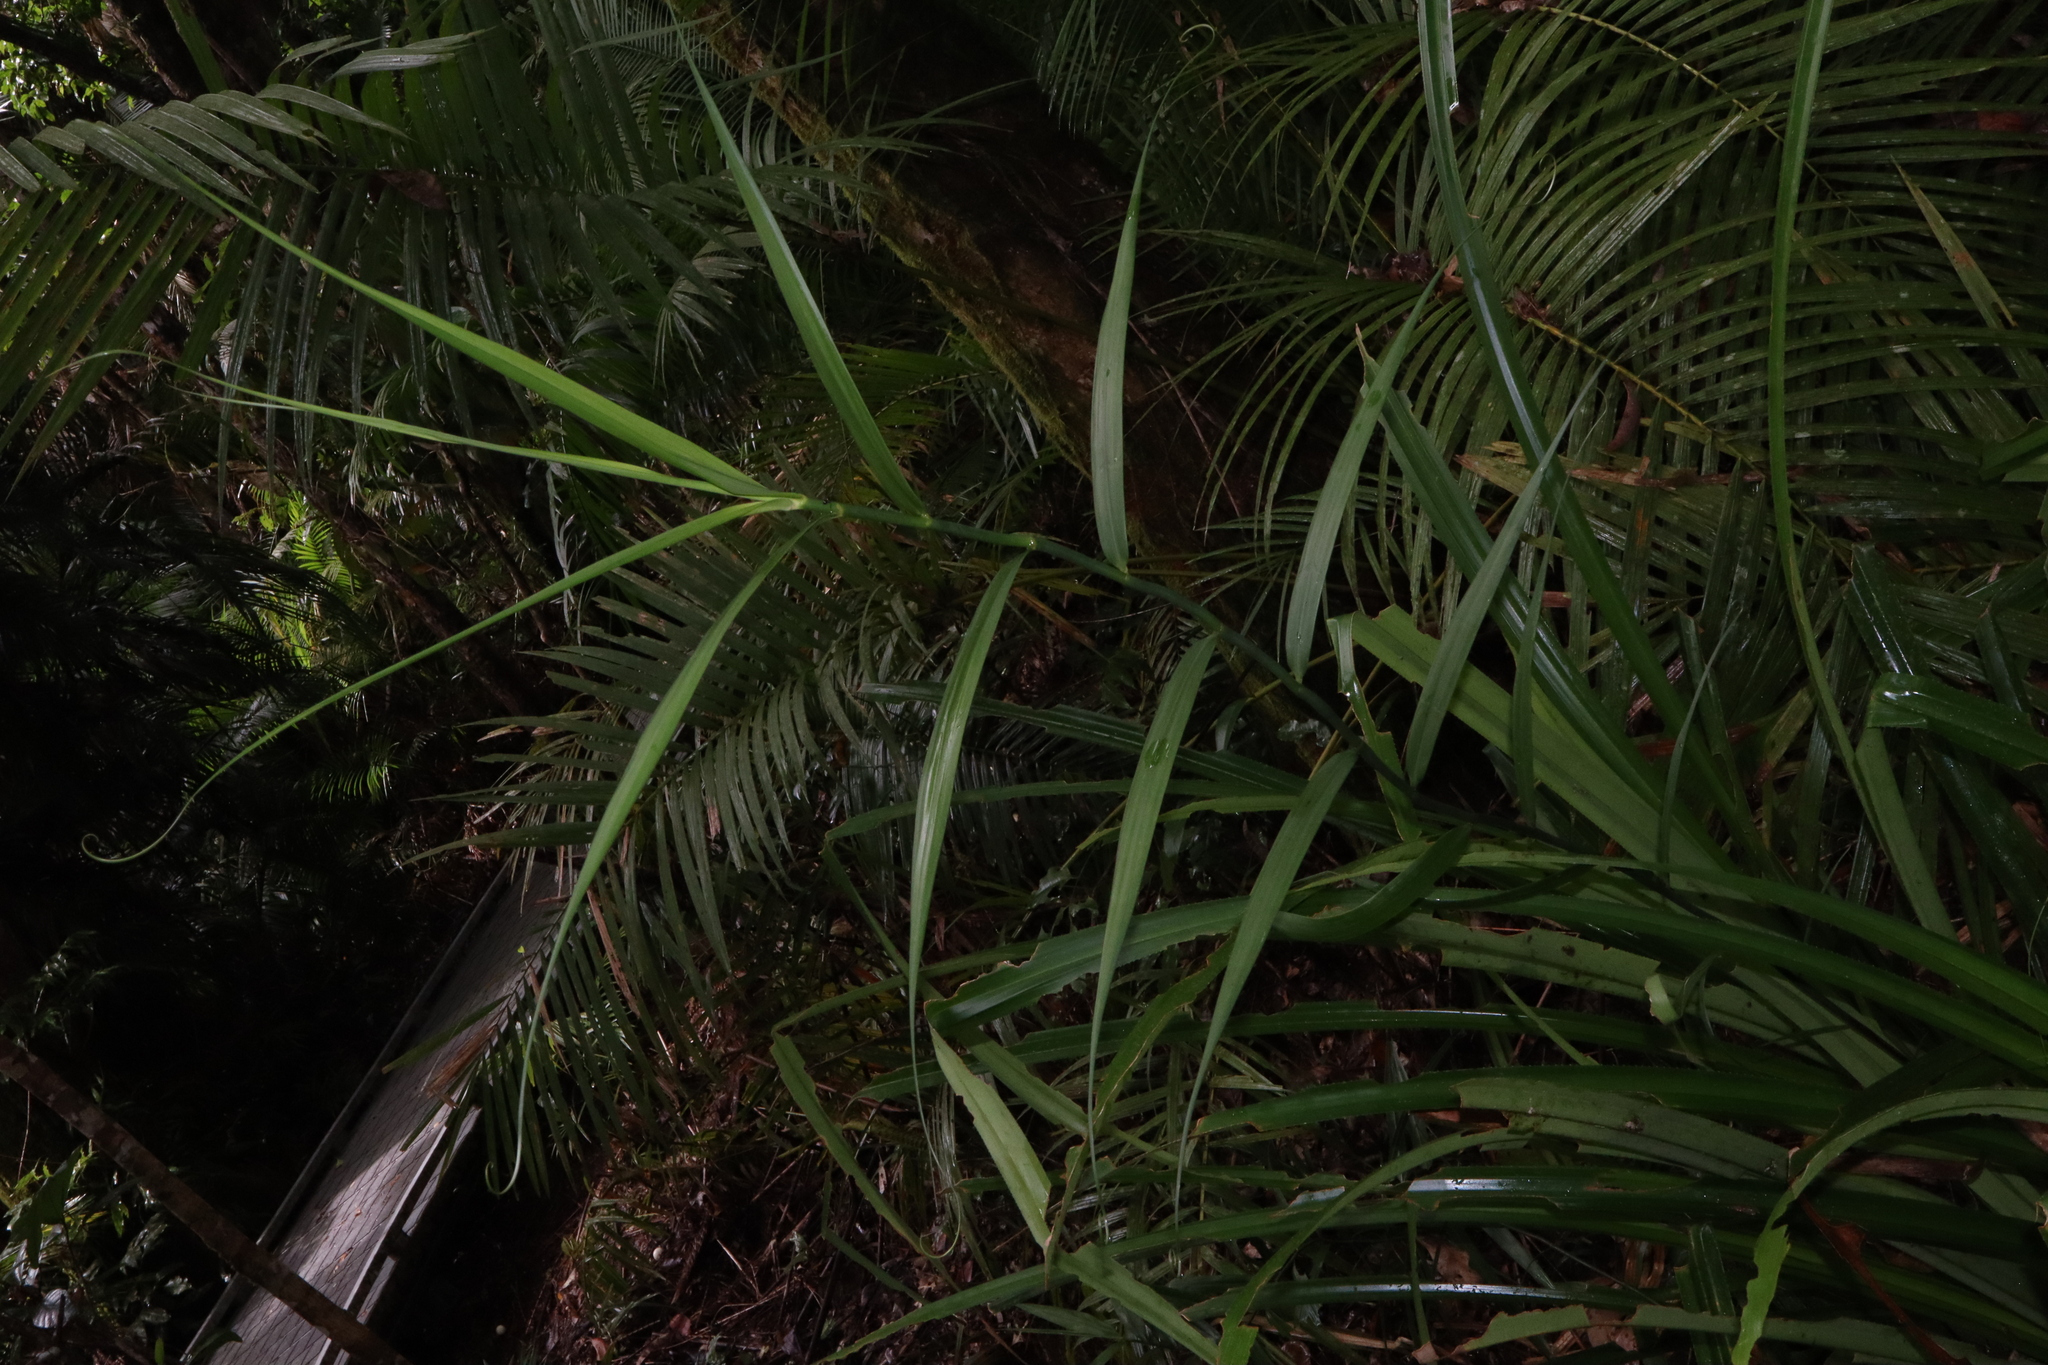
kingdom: Plantae
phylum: Tracheophyta
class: Liliopsida
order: Poales
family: Flagellariaceae
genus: Flagellaria
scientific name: Flagellaria indica
